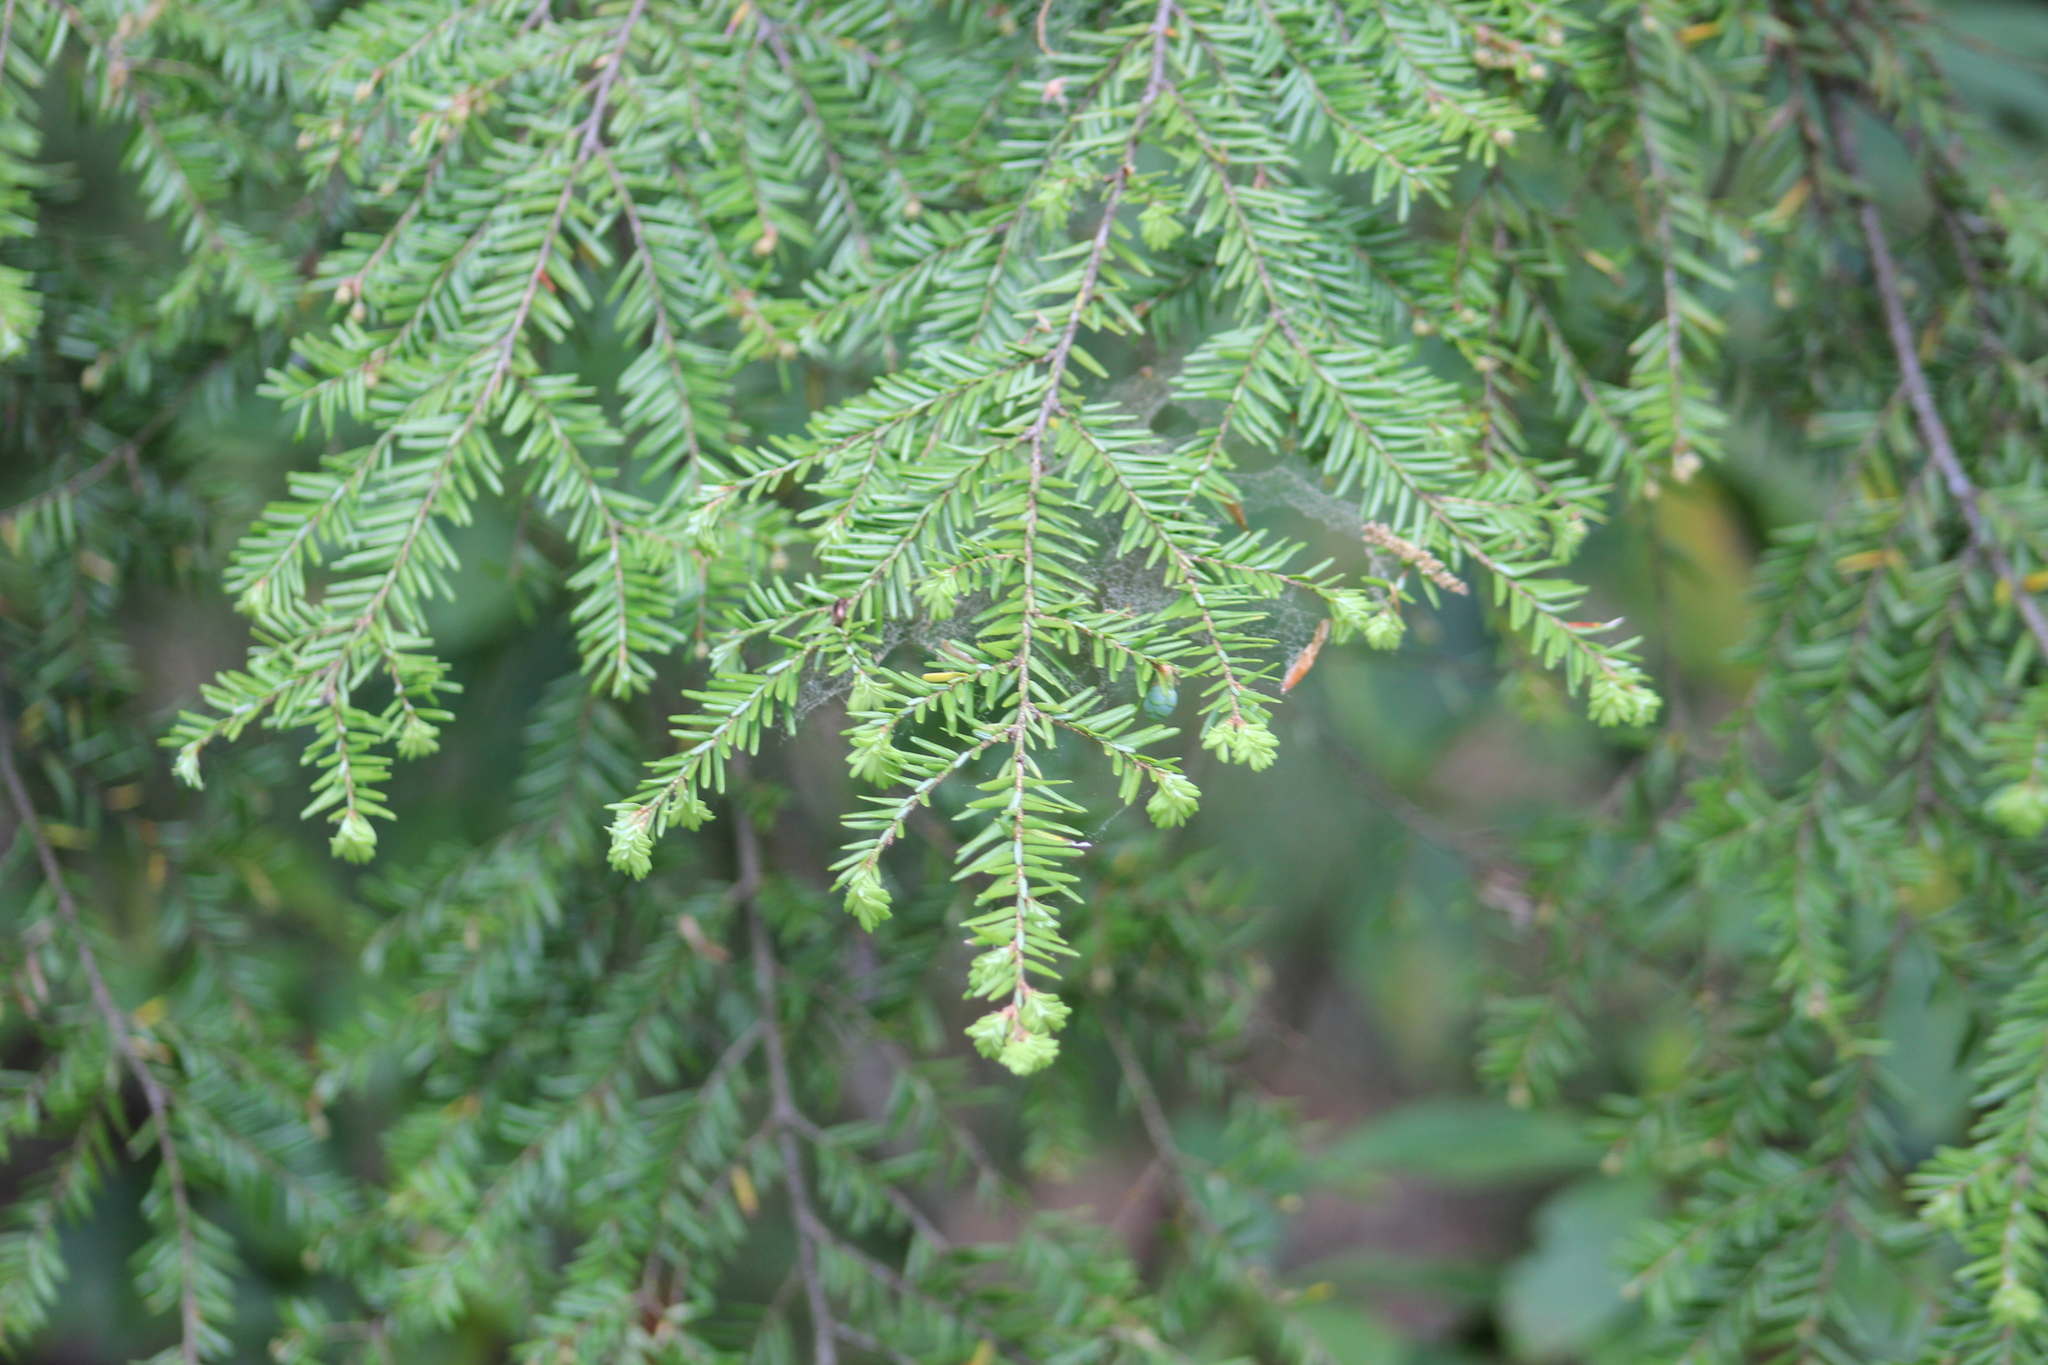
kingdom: Plantae
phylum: Tracheophyta
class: Pinopsida
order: Pinales
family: Pinaceae
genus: Tsuga
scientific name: Tsuga canadensis
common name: Eastern hemlock
